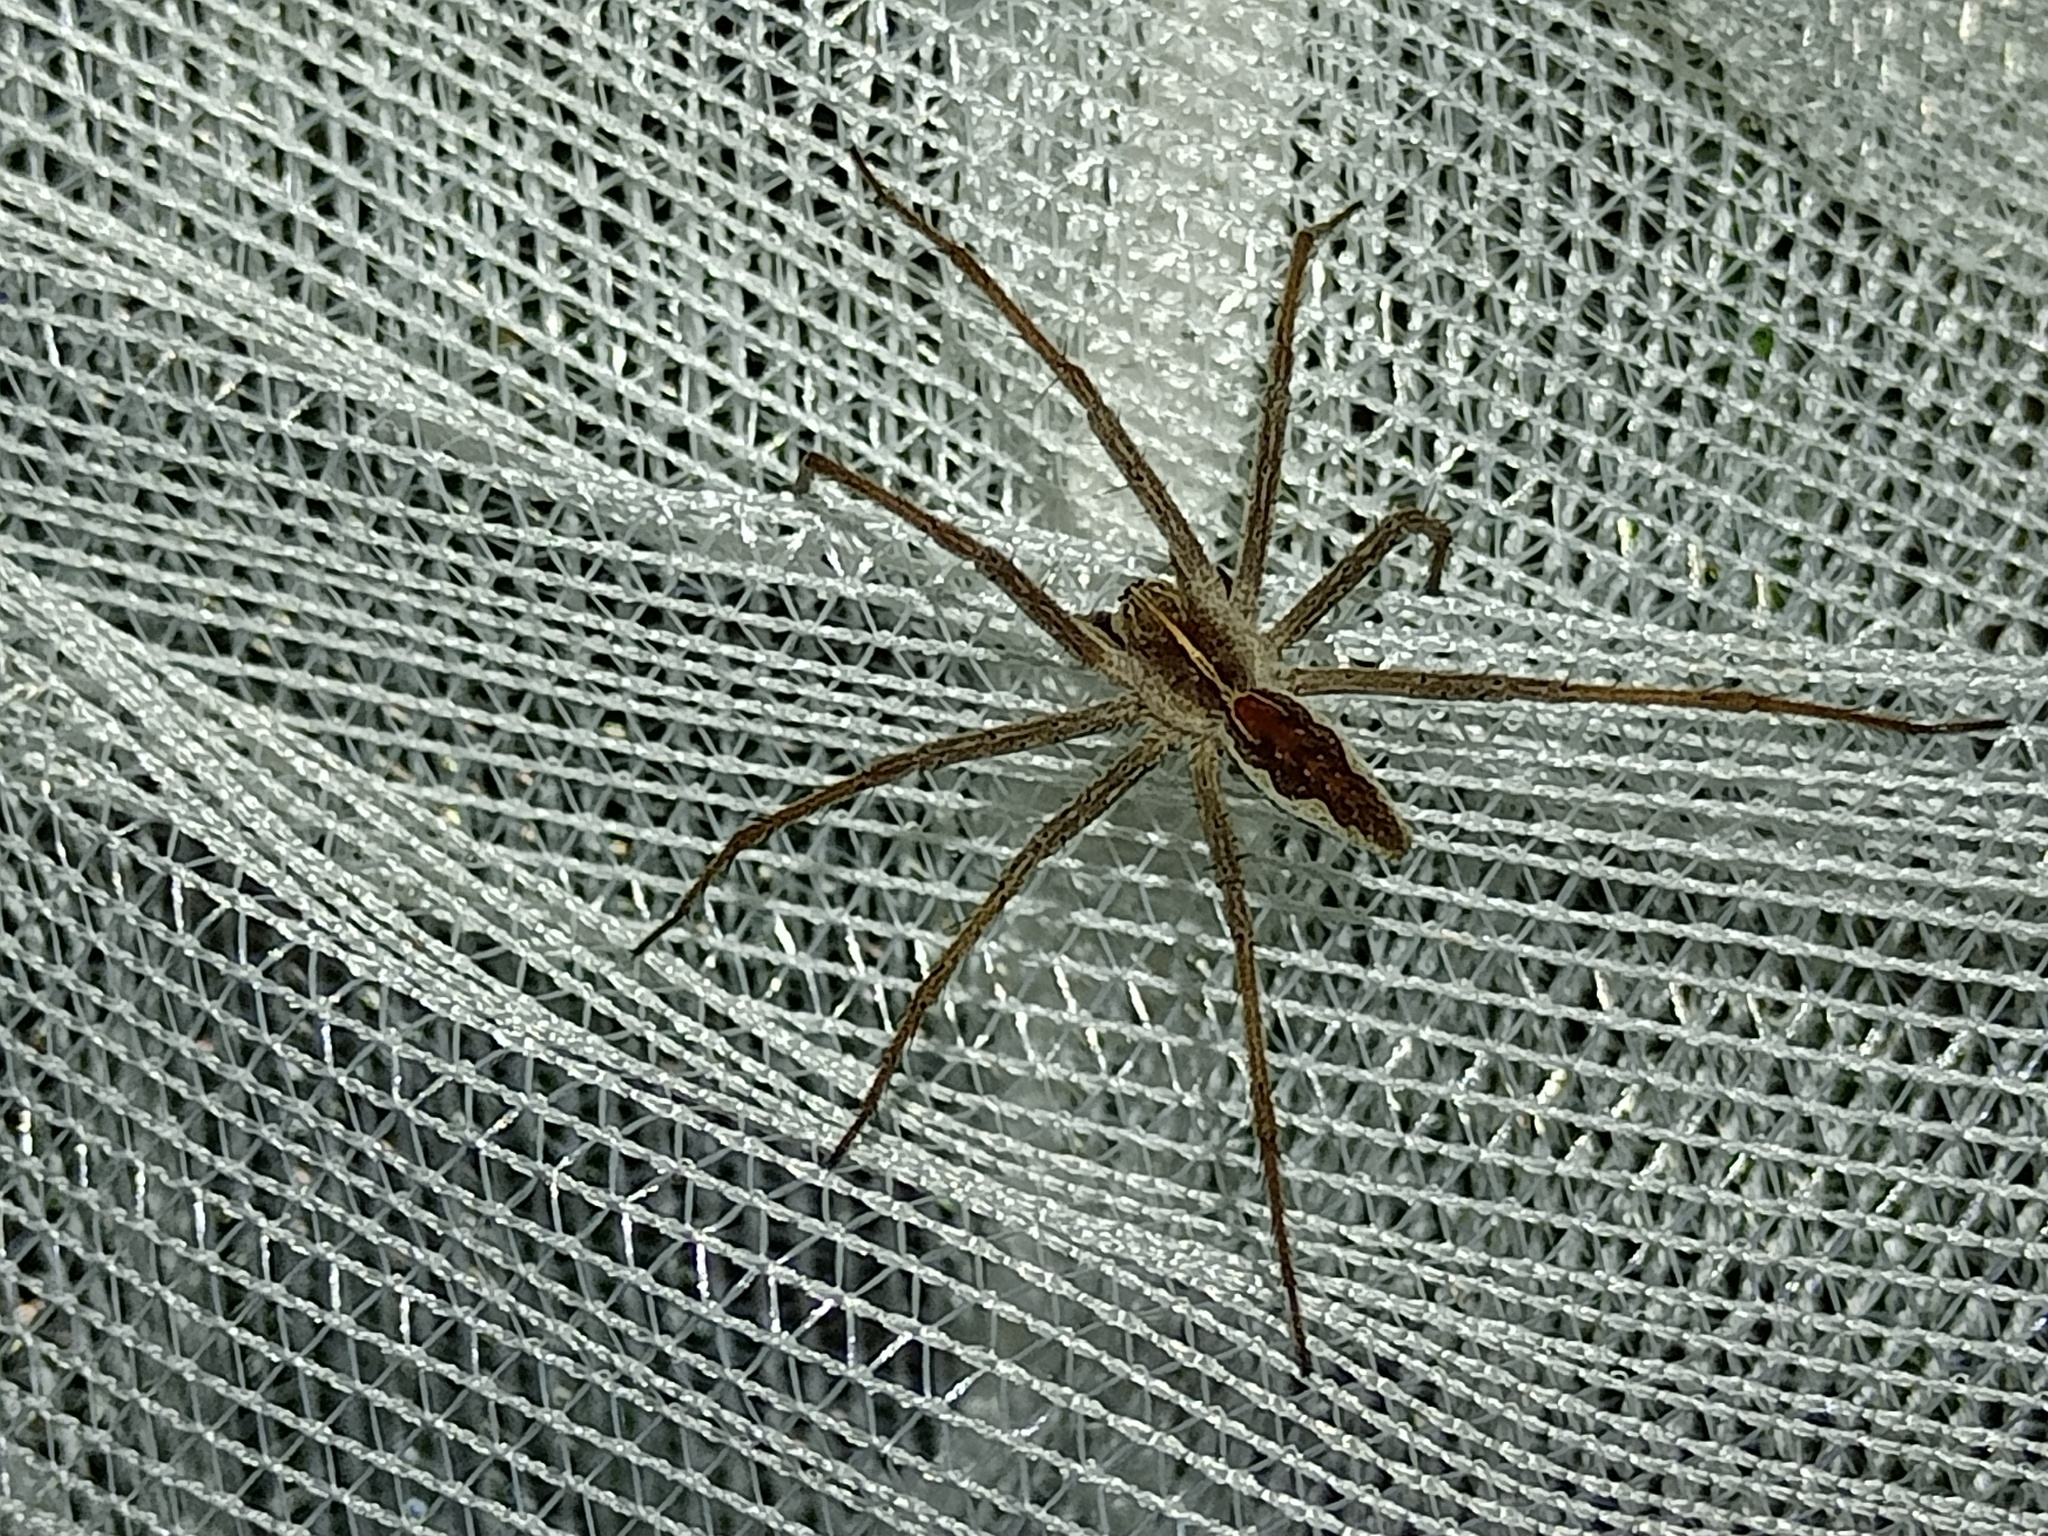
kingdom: Animalia
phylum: Arthropoda
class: Arachnida
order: Araneae
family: Pisauridae
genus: Pisaura
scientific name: Pisaura mirabilis
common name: Tent spider
